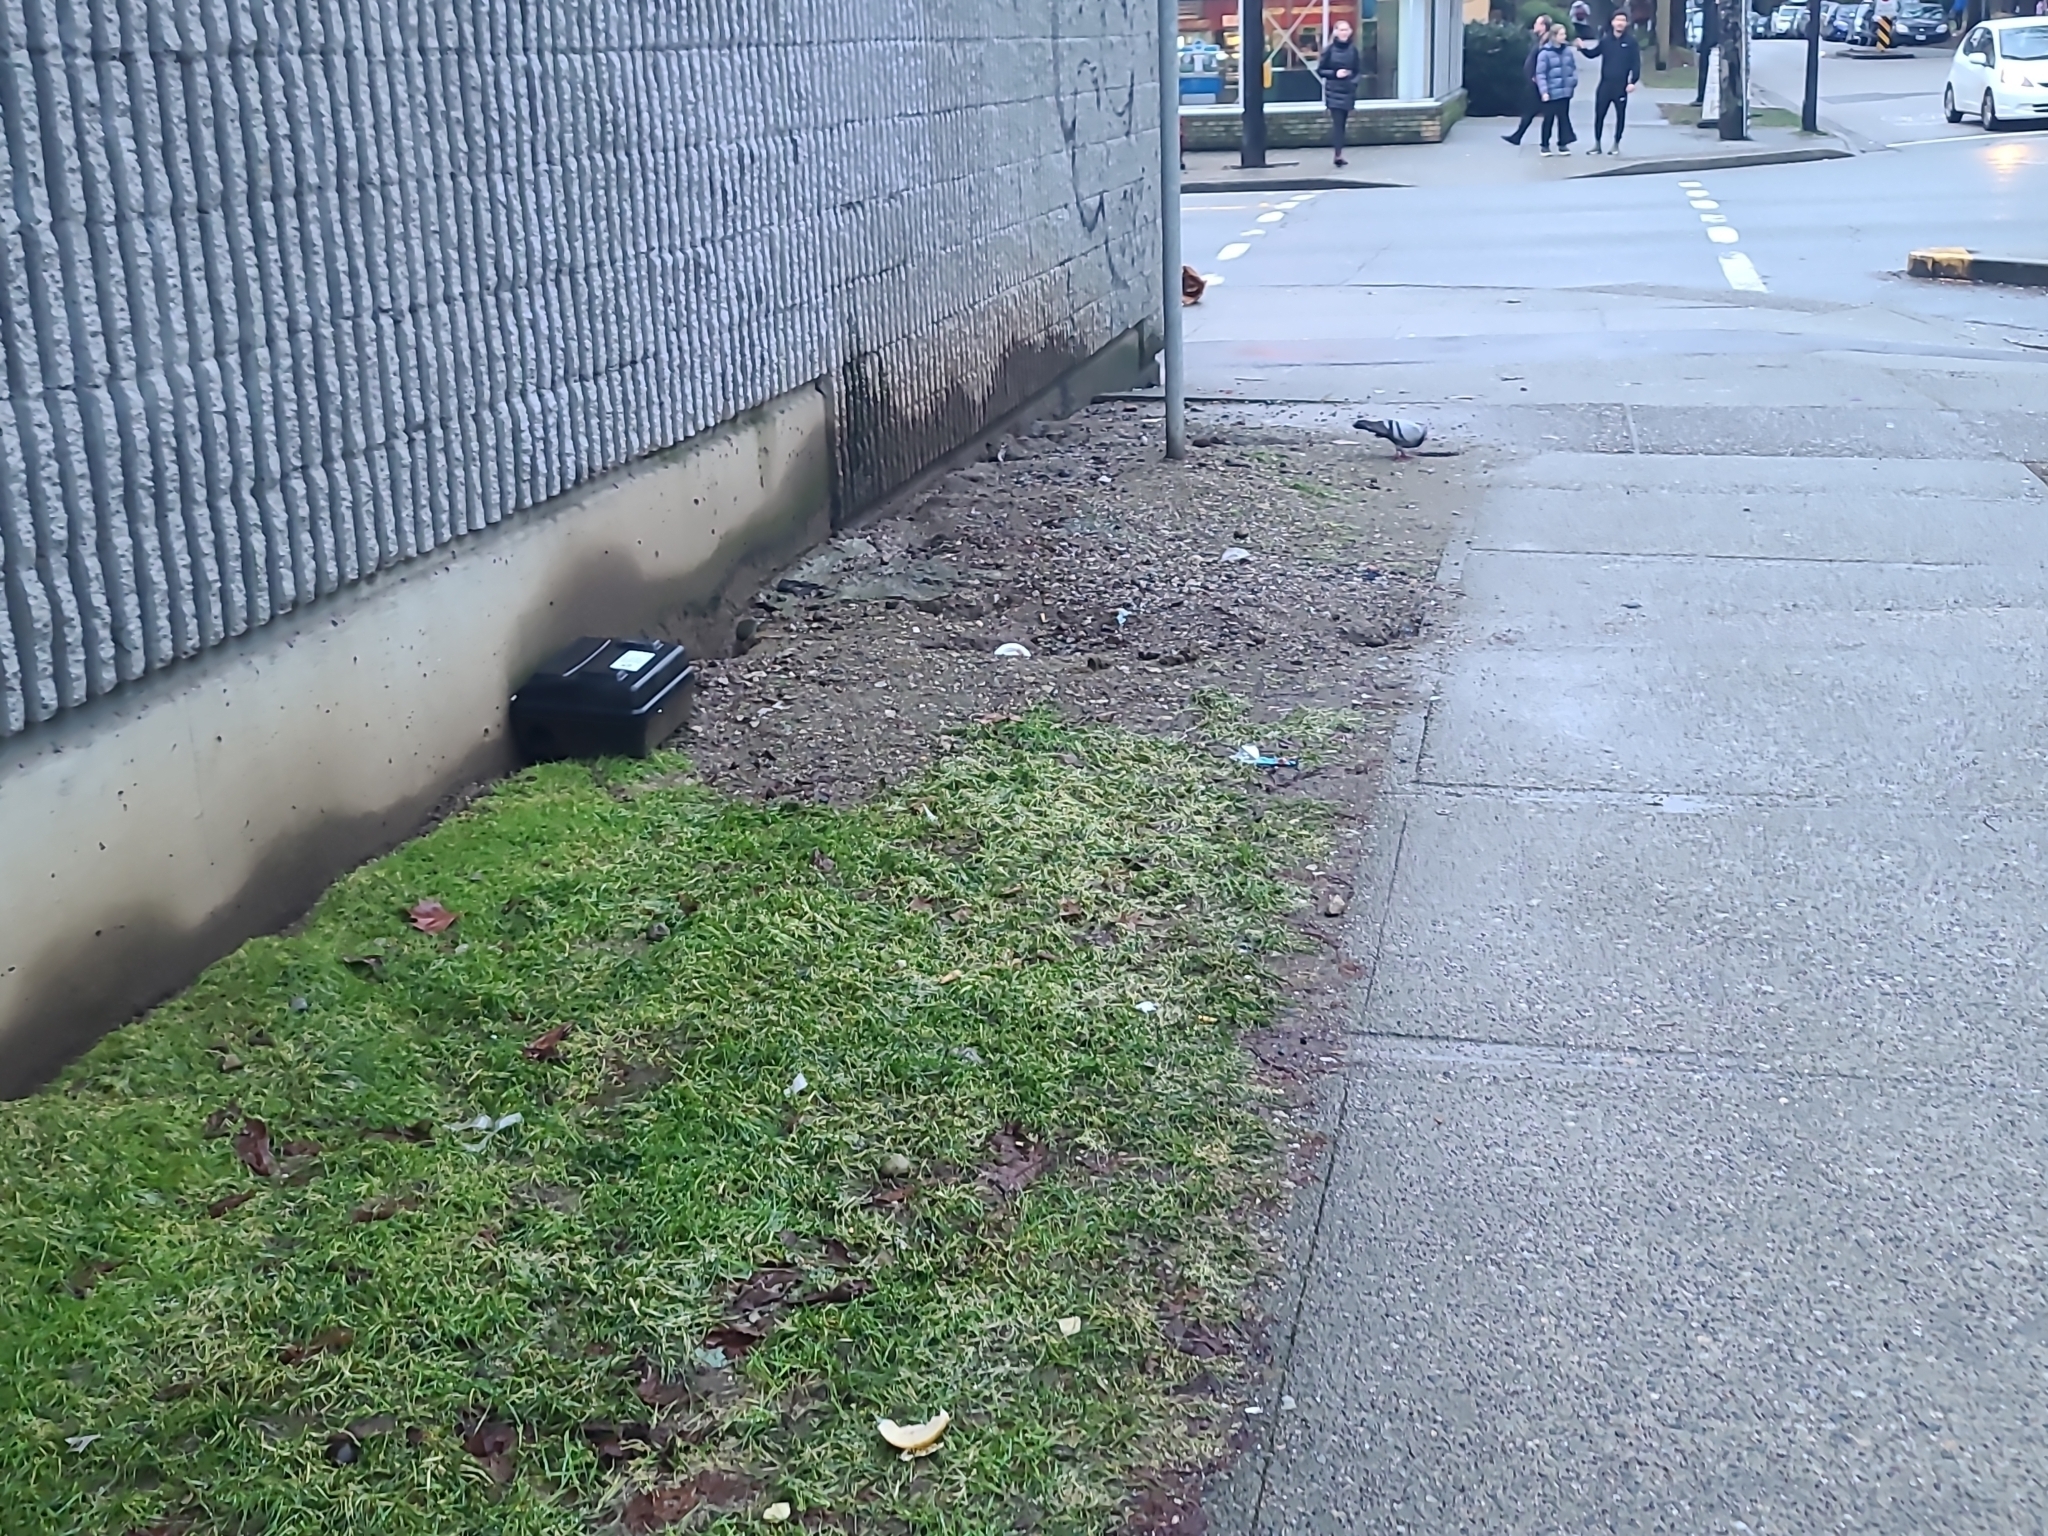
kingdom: Animalia
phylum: Chordata
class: Aves
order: Columbiformes
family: Columbidae
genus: Columba
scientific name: Columba livia
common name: Rock pigeon
